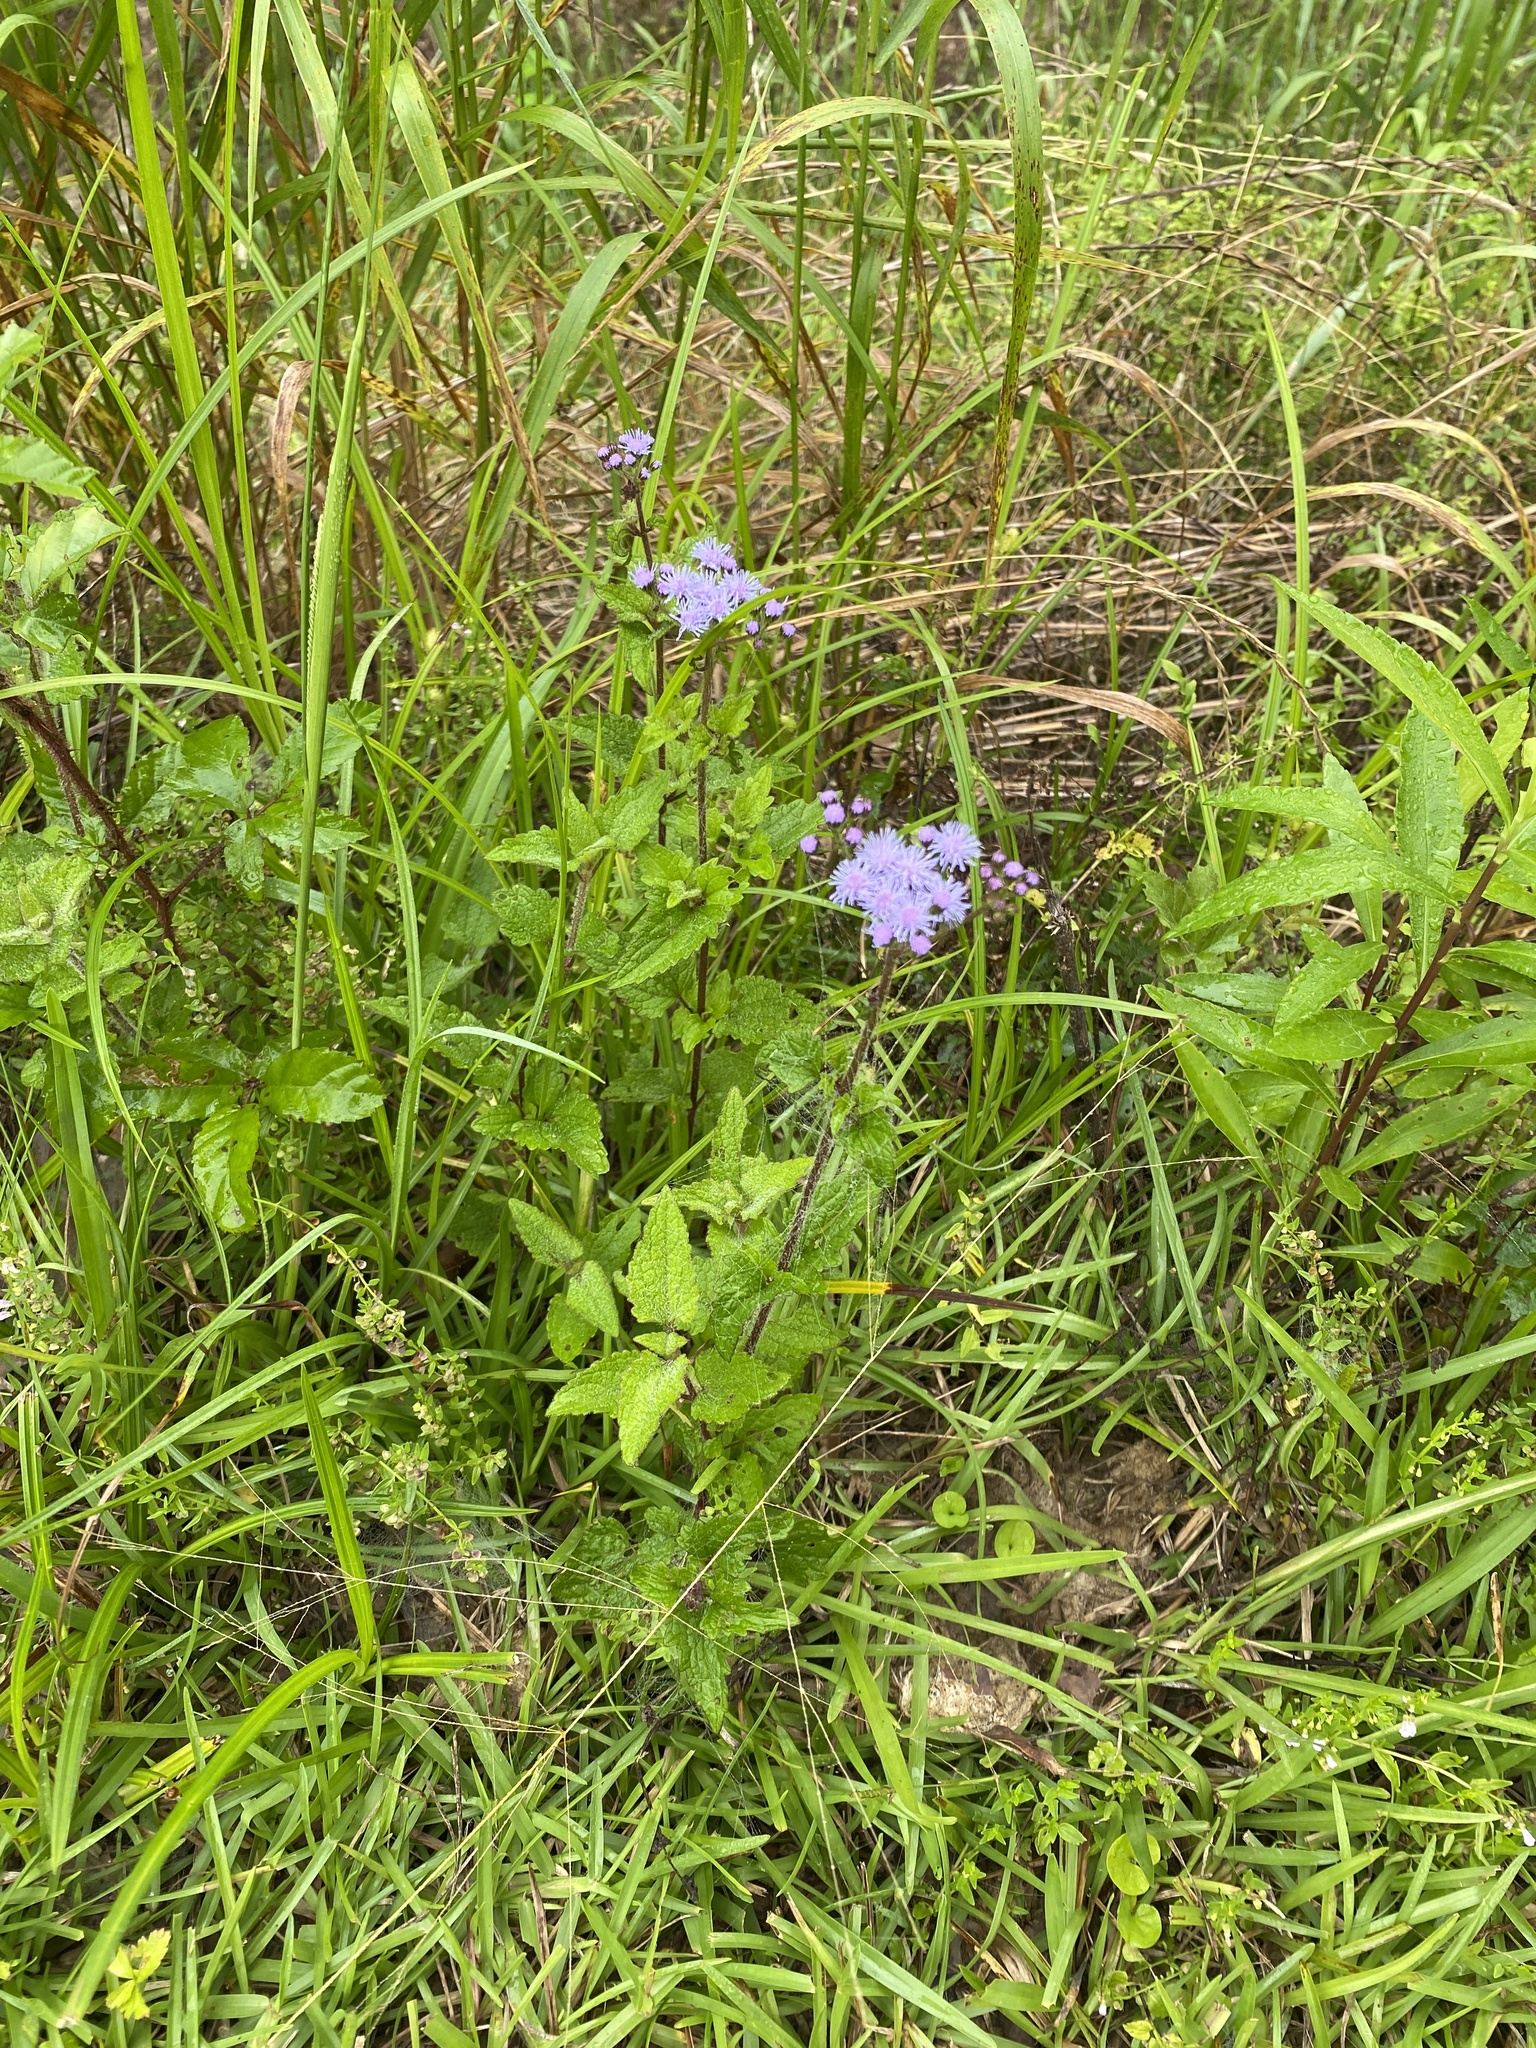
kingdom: Plantae
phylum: Tracheophyta
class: Magnoliopsida
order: Asterales
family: Asteraceae
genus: Conoclinium
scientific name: Conoclinium coelestinum
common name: Blue mistflower
